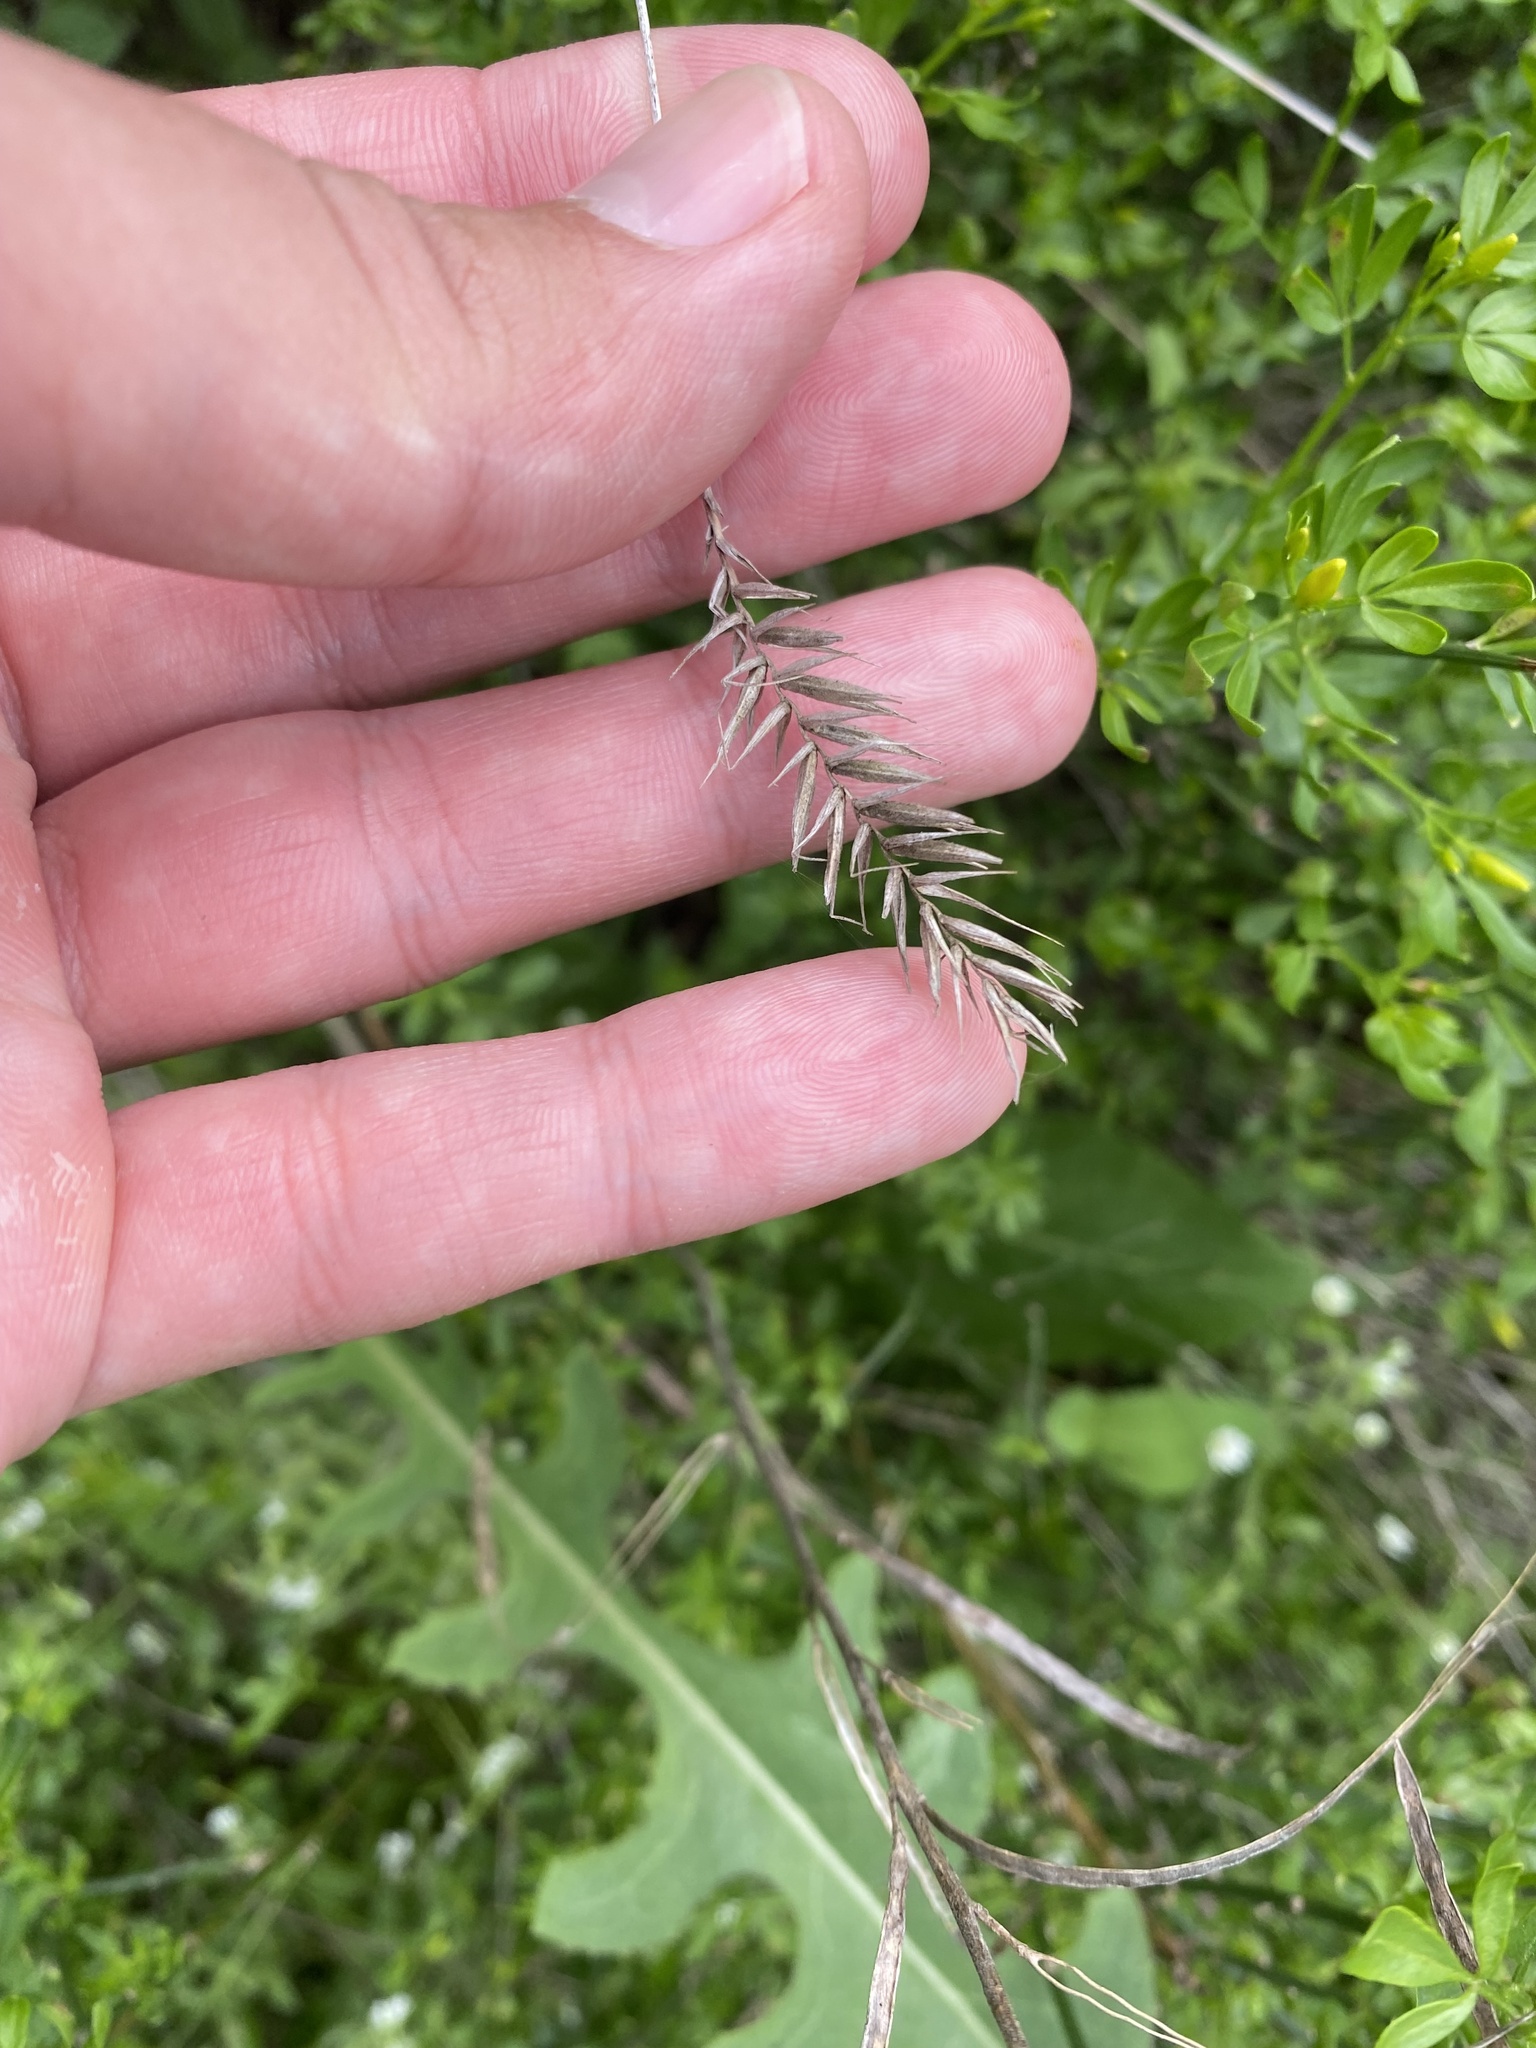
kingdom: Plantae
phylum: Tracheophyta
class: Liliopsida
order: Poales
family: Poaceae
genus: Agropyron
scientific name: Agropyron cristatum
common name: Crested wheatgrass
